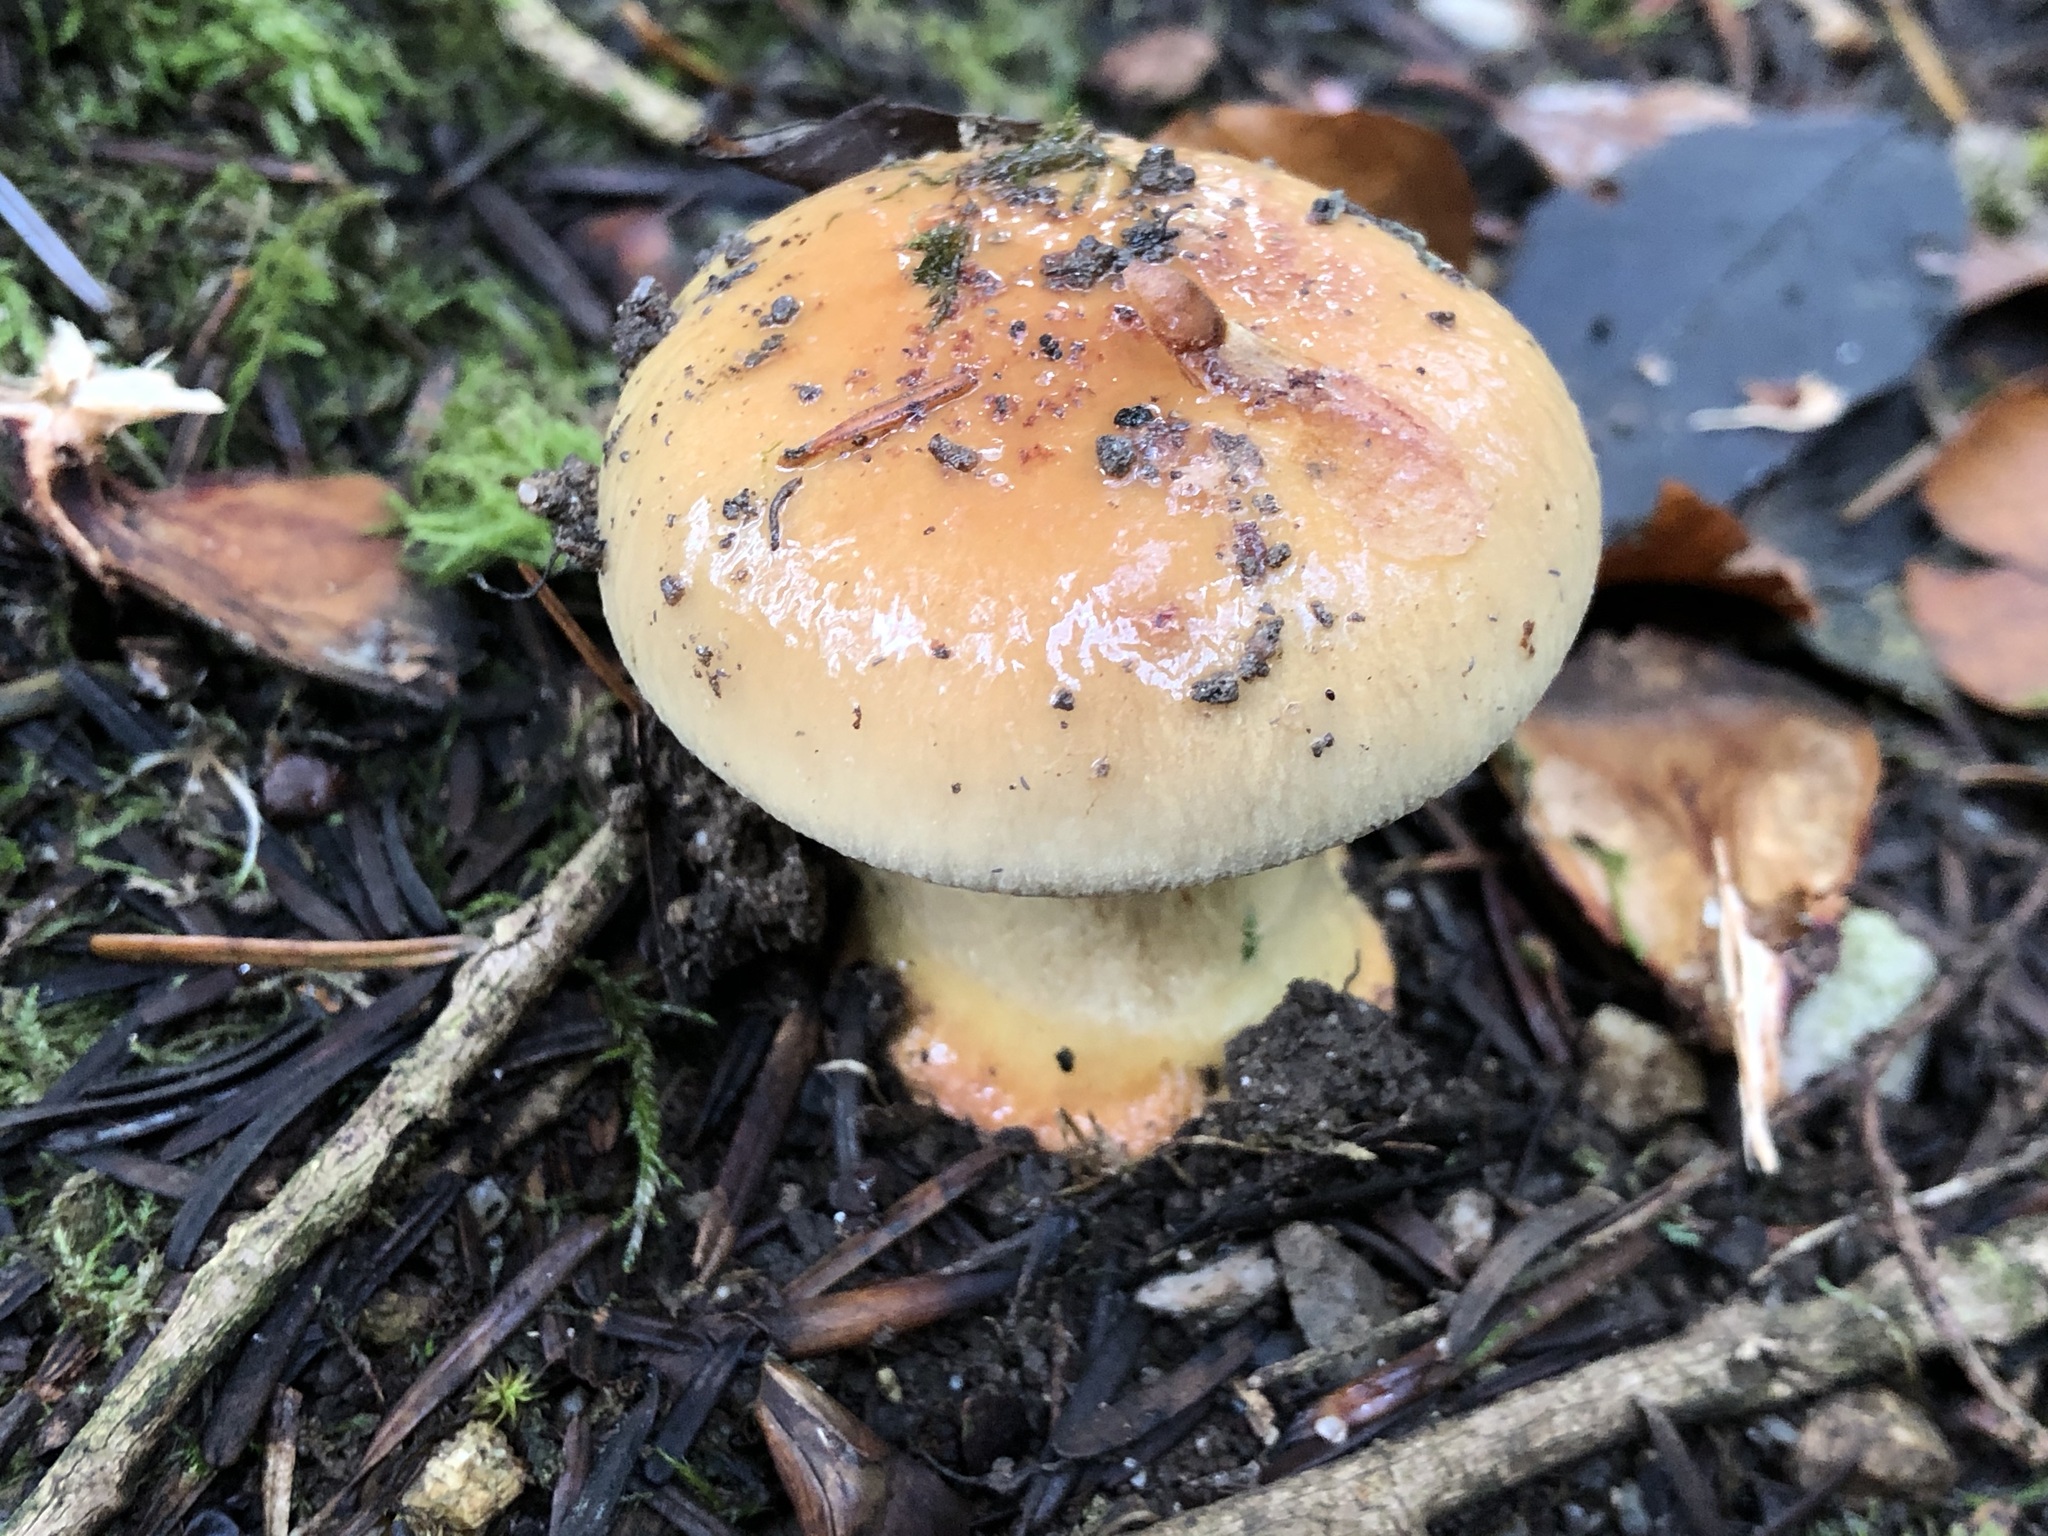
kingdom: Fungi
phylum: Basidiomycota
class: Agaricomycetes
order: Agaricales
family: Cortinariaceae
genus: Calonarius
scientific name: Calonarius odorifer
